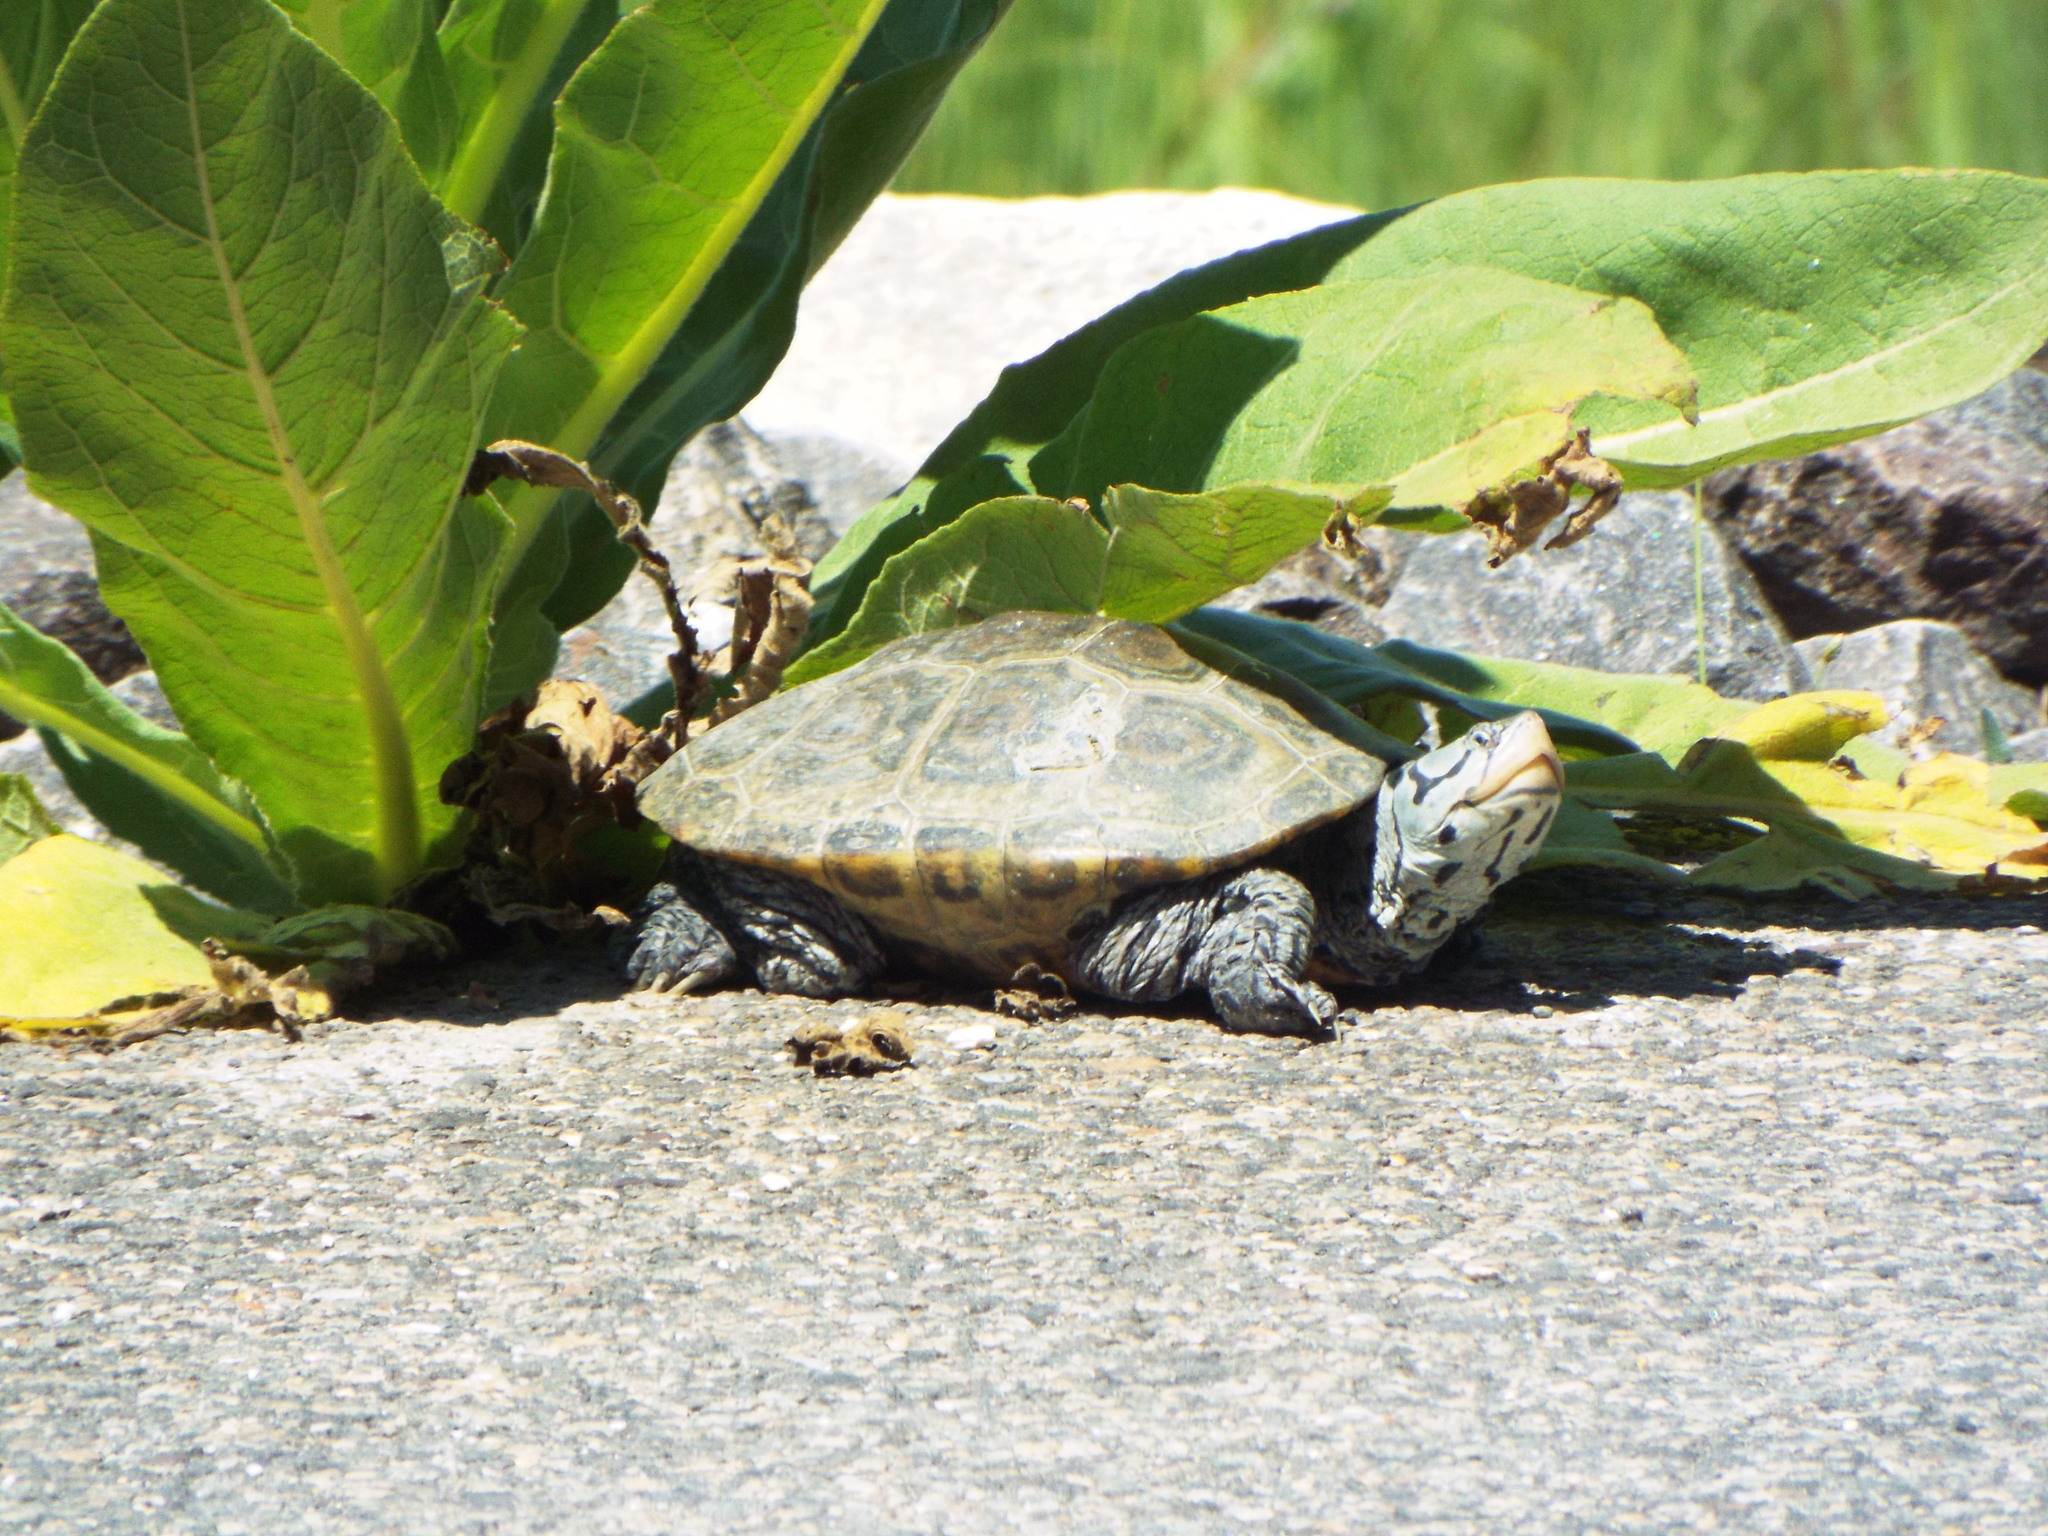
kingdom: Animalia
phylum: Chordata
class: Testudines
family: Emydidae
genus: Malaclemys
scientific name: Malaclemys terrapin
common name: Diamondback terrapin
